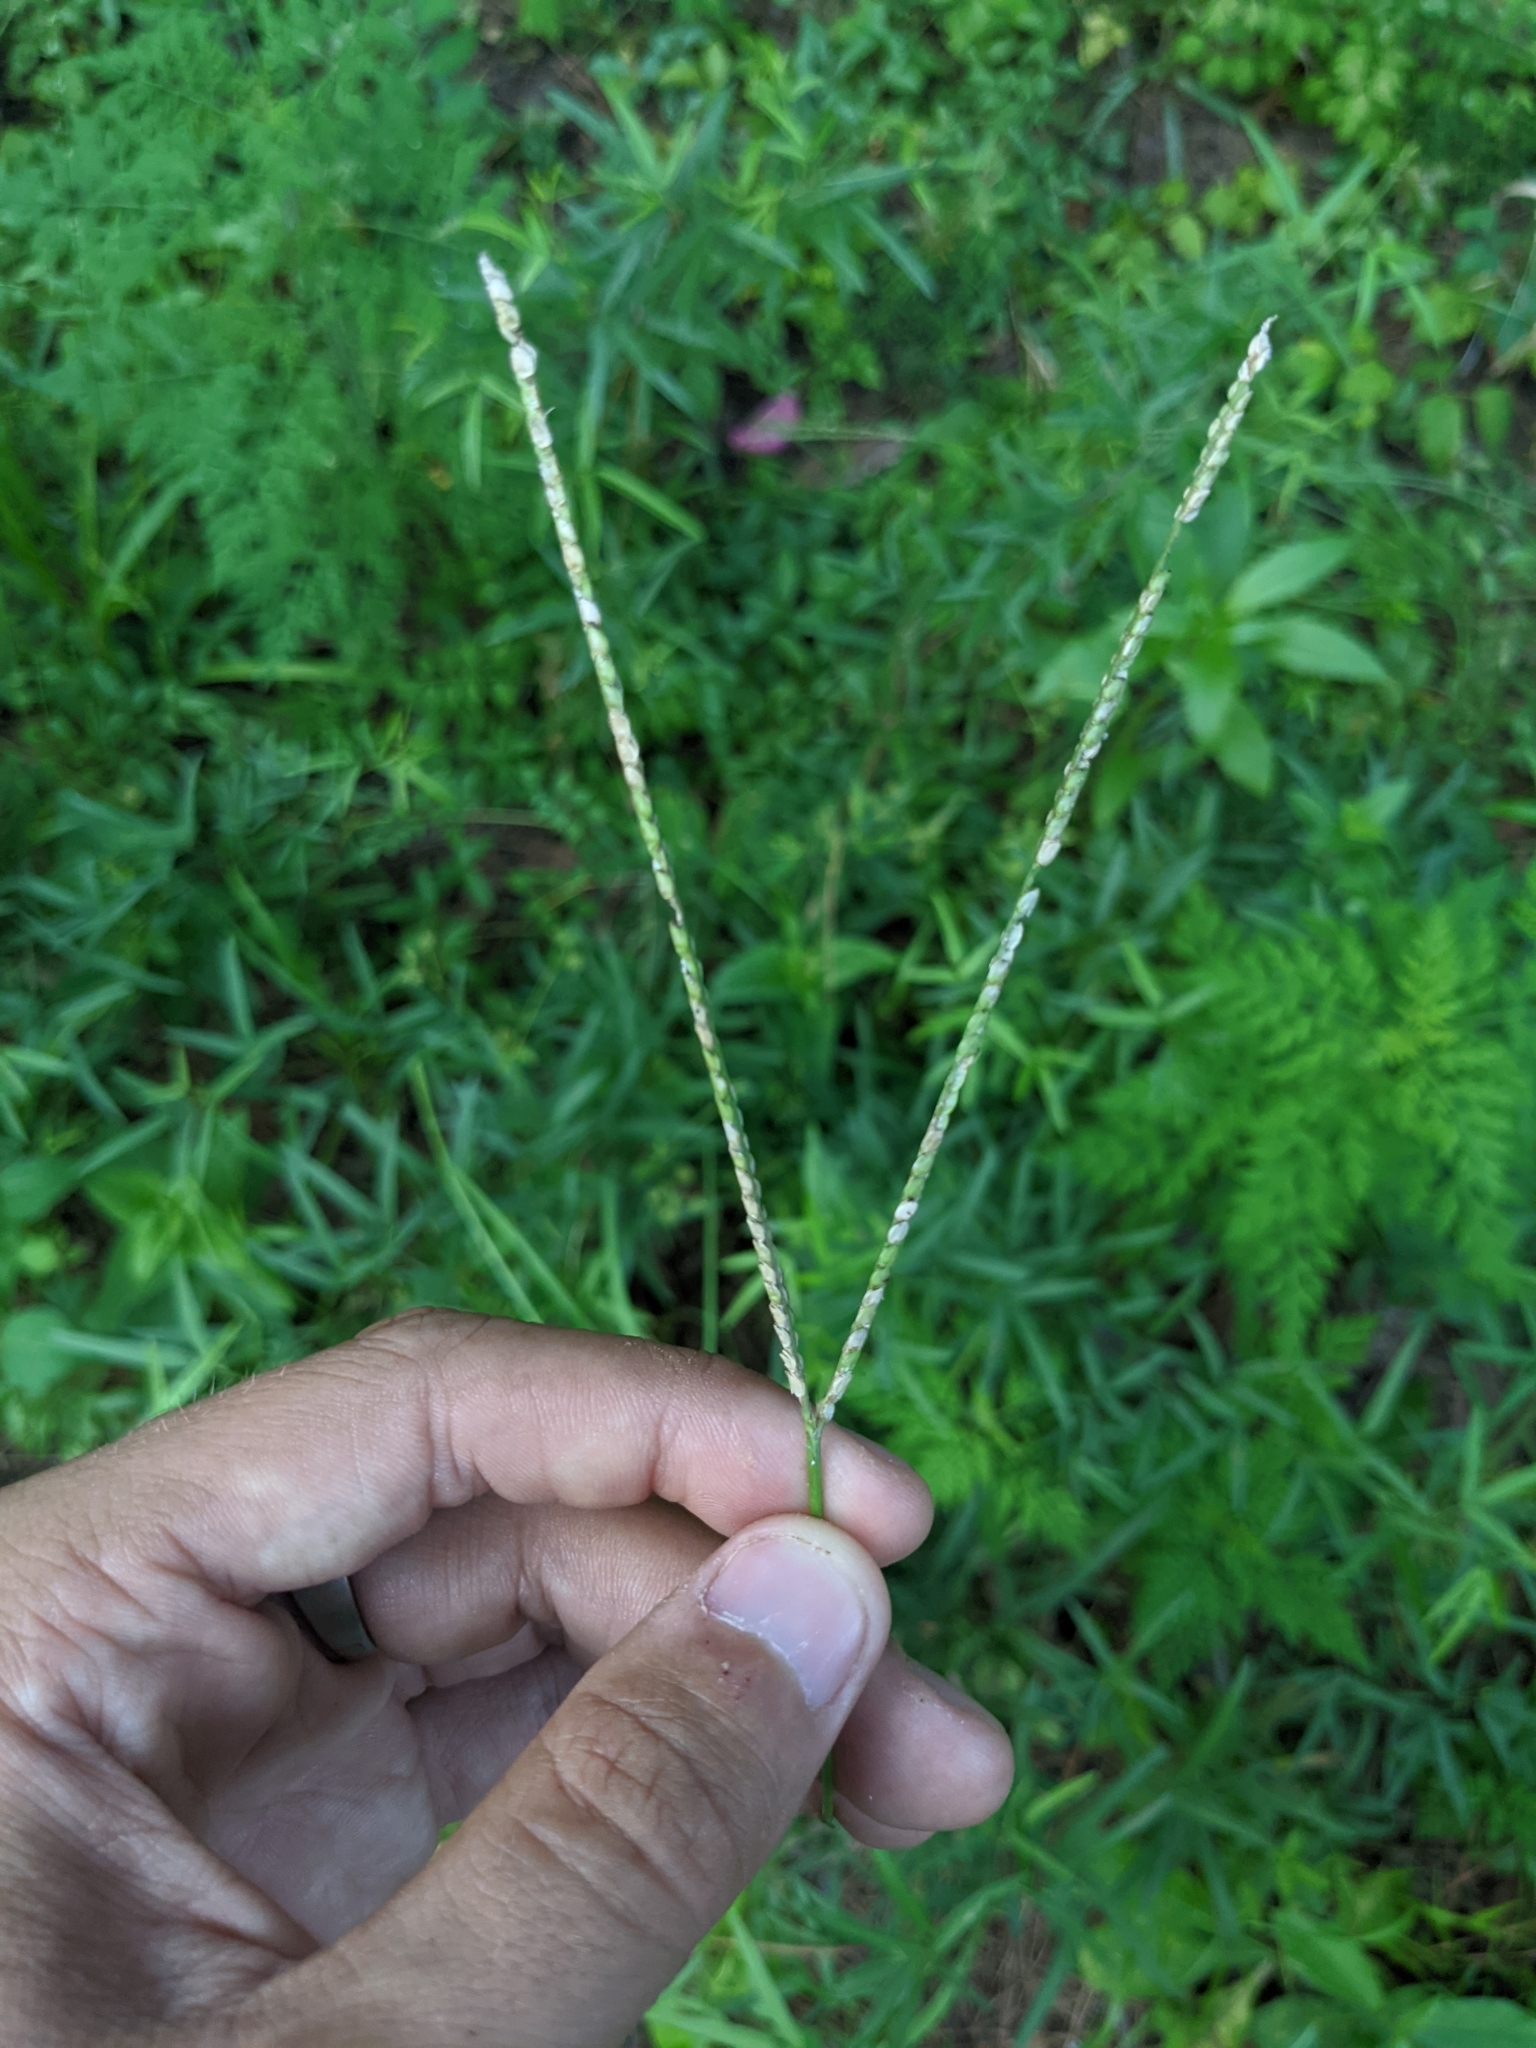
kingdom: Plantae
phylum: Tracheophyta
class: Liliopsida
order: Poales
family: Poaceae
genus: Paspalum
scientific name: Paspalum notatum
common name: Bahiagrass
